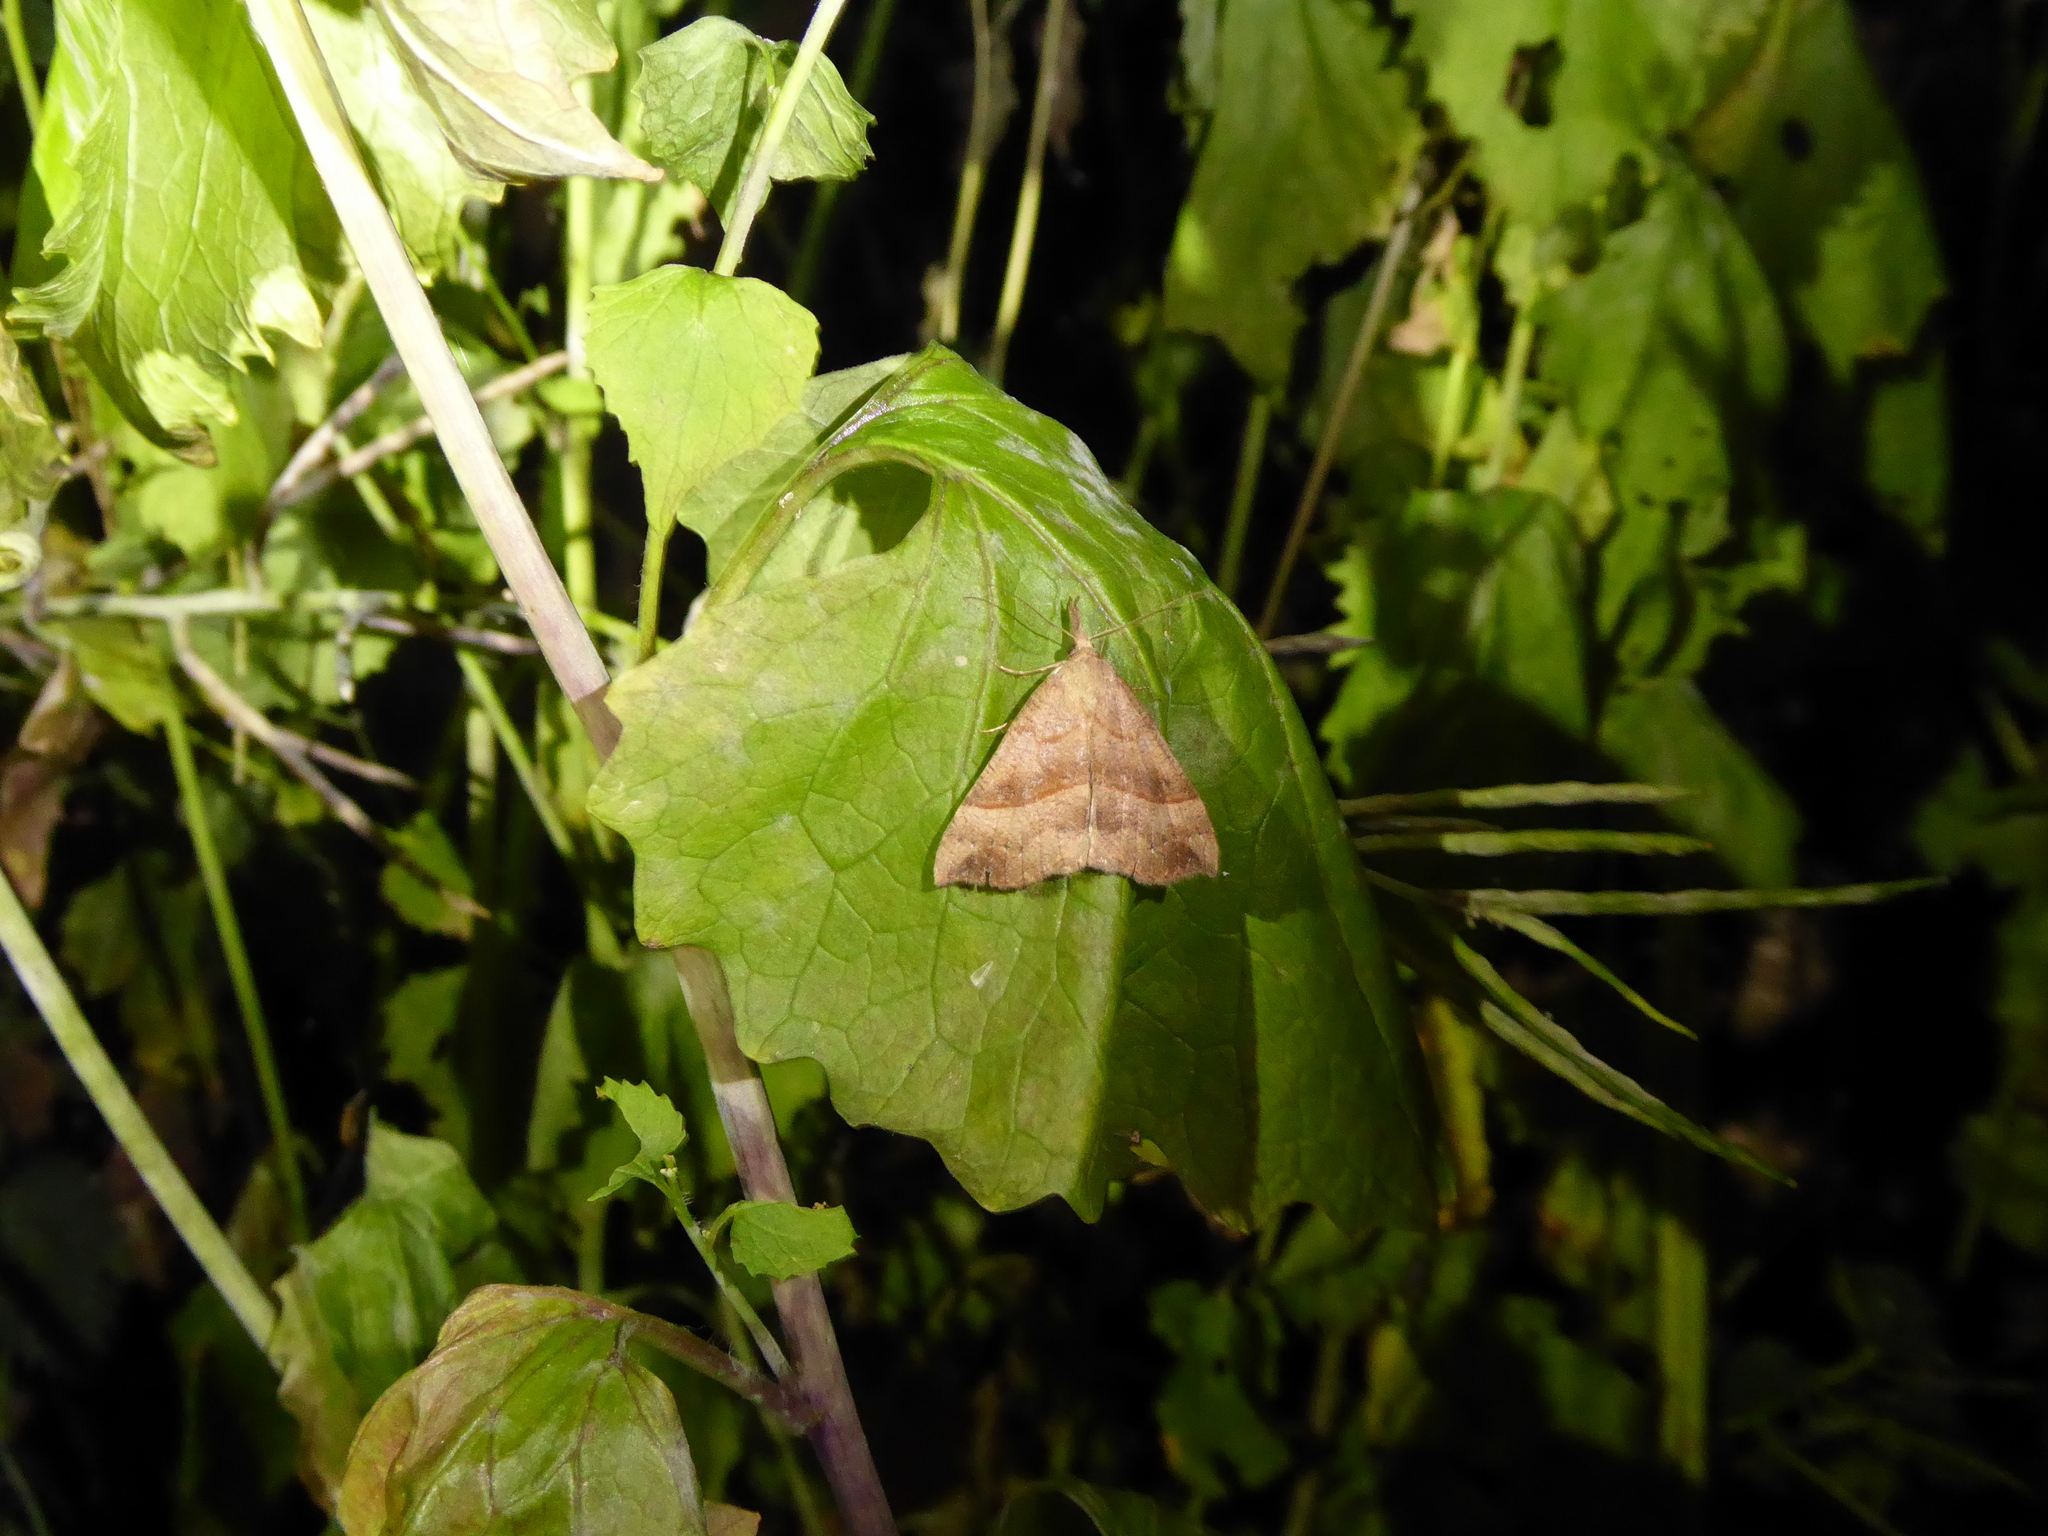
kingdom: Animalia
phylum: Arthropoda
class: Insecta
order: Lepidoptera
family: Erebidae
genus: Hypena
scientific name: Hypena proboscidalis
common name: Snout
